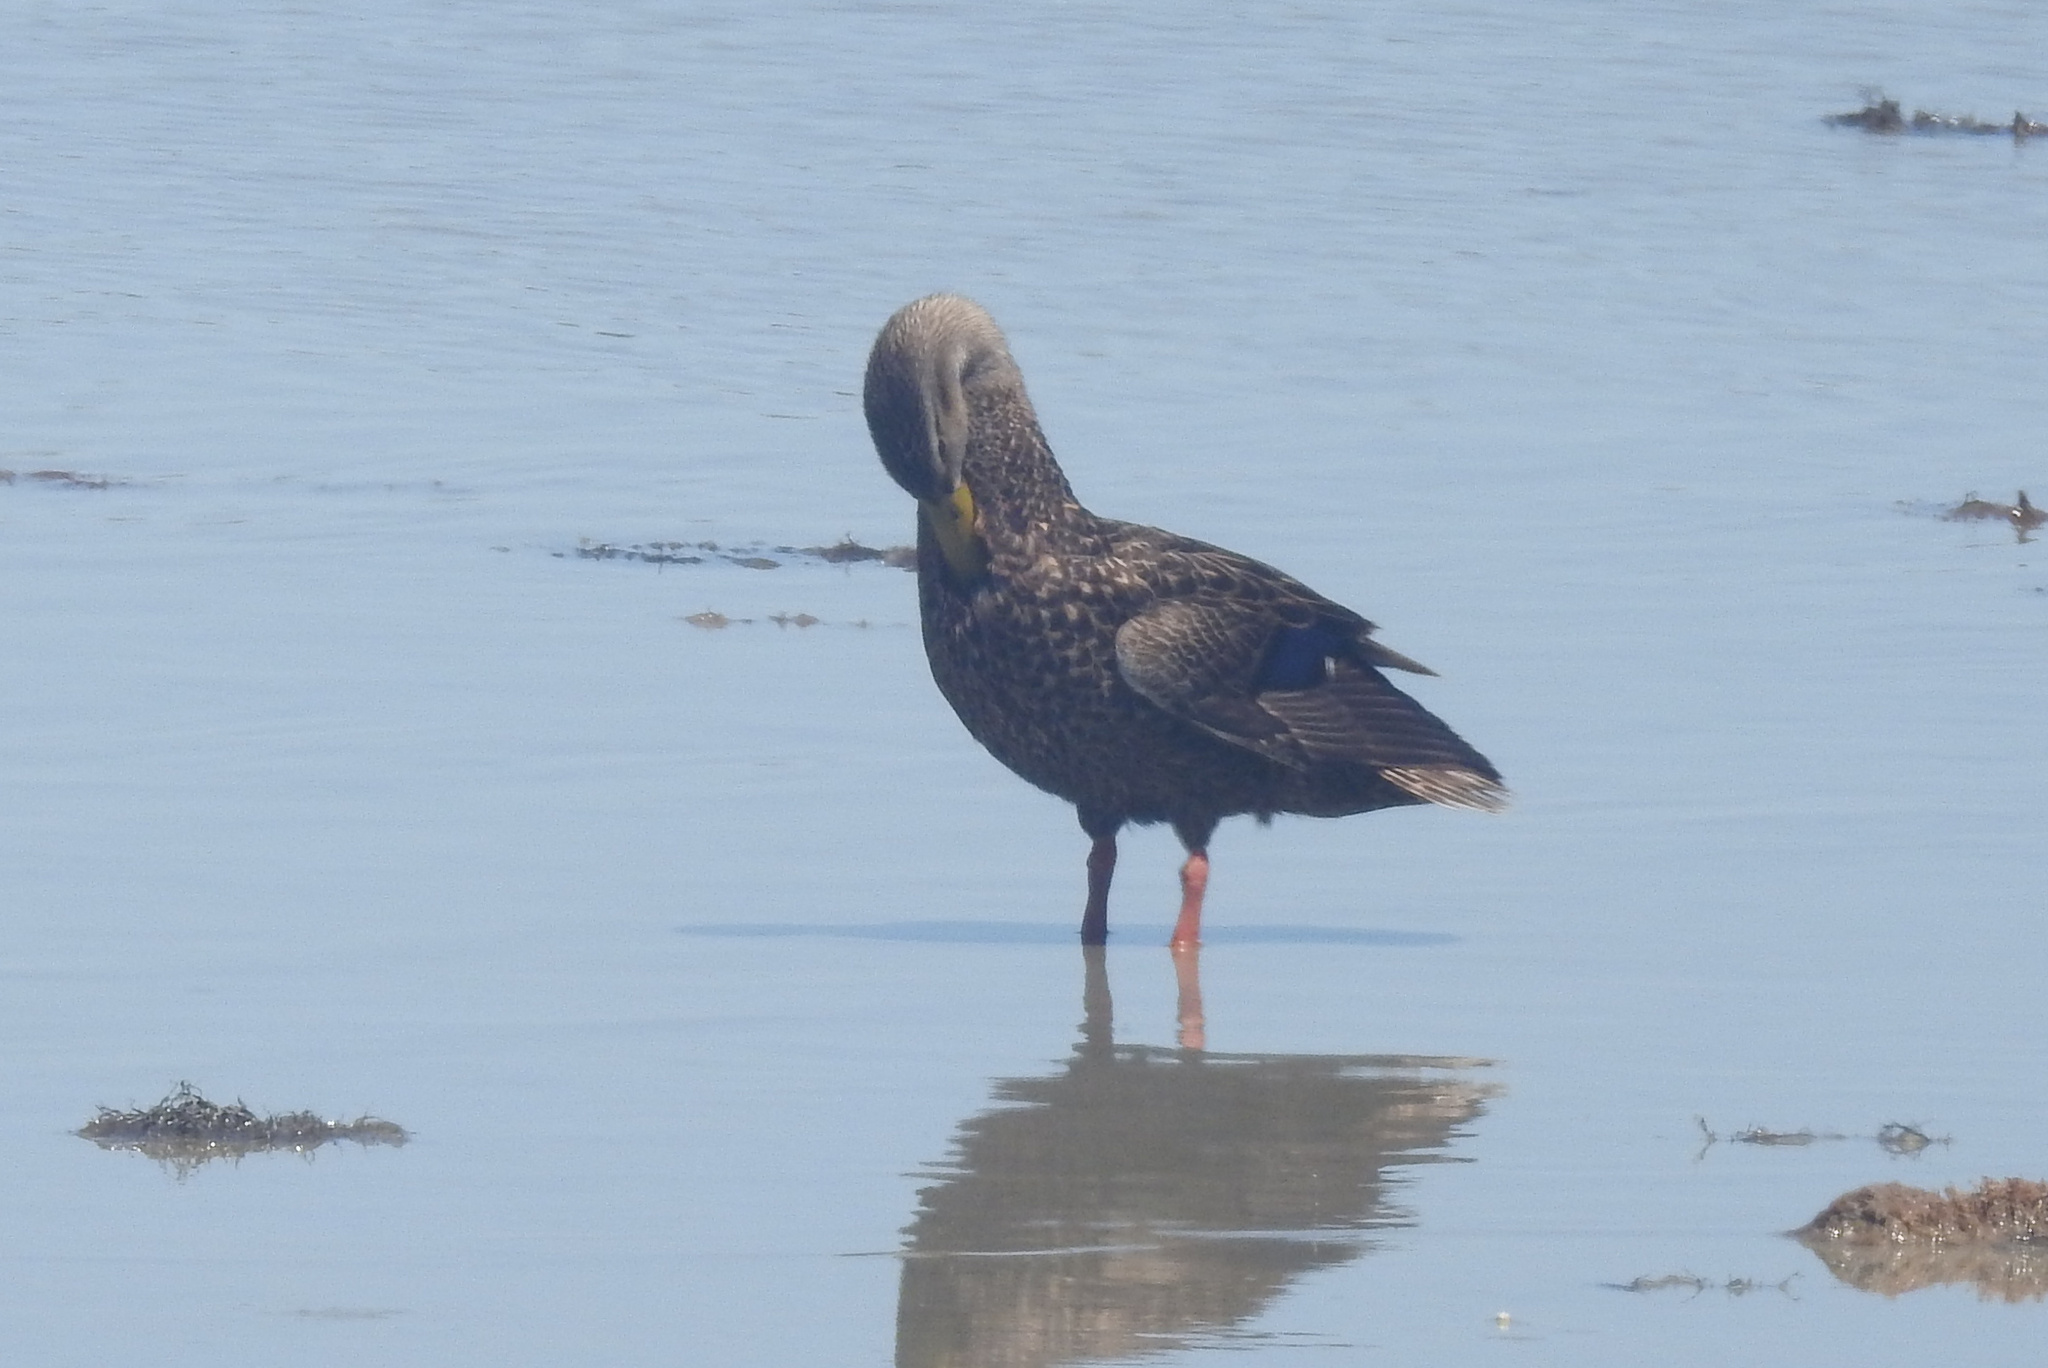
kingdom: Animalia
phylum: Chordata
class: Aves
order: Anseriformes
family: Anatidae
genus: Anas
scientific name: Anas fulvigula
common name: Mottled duck
